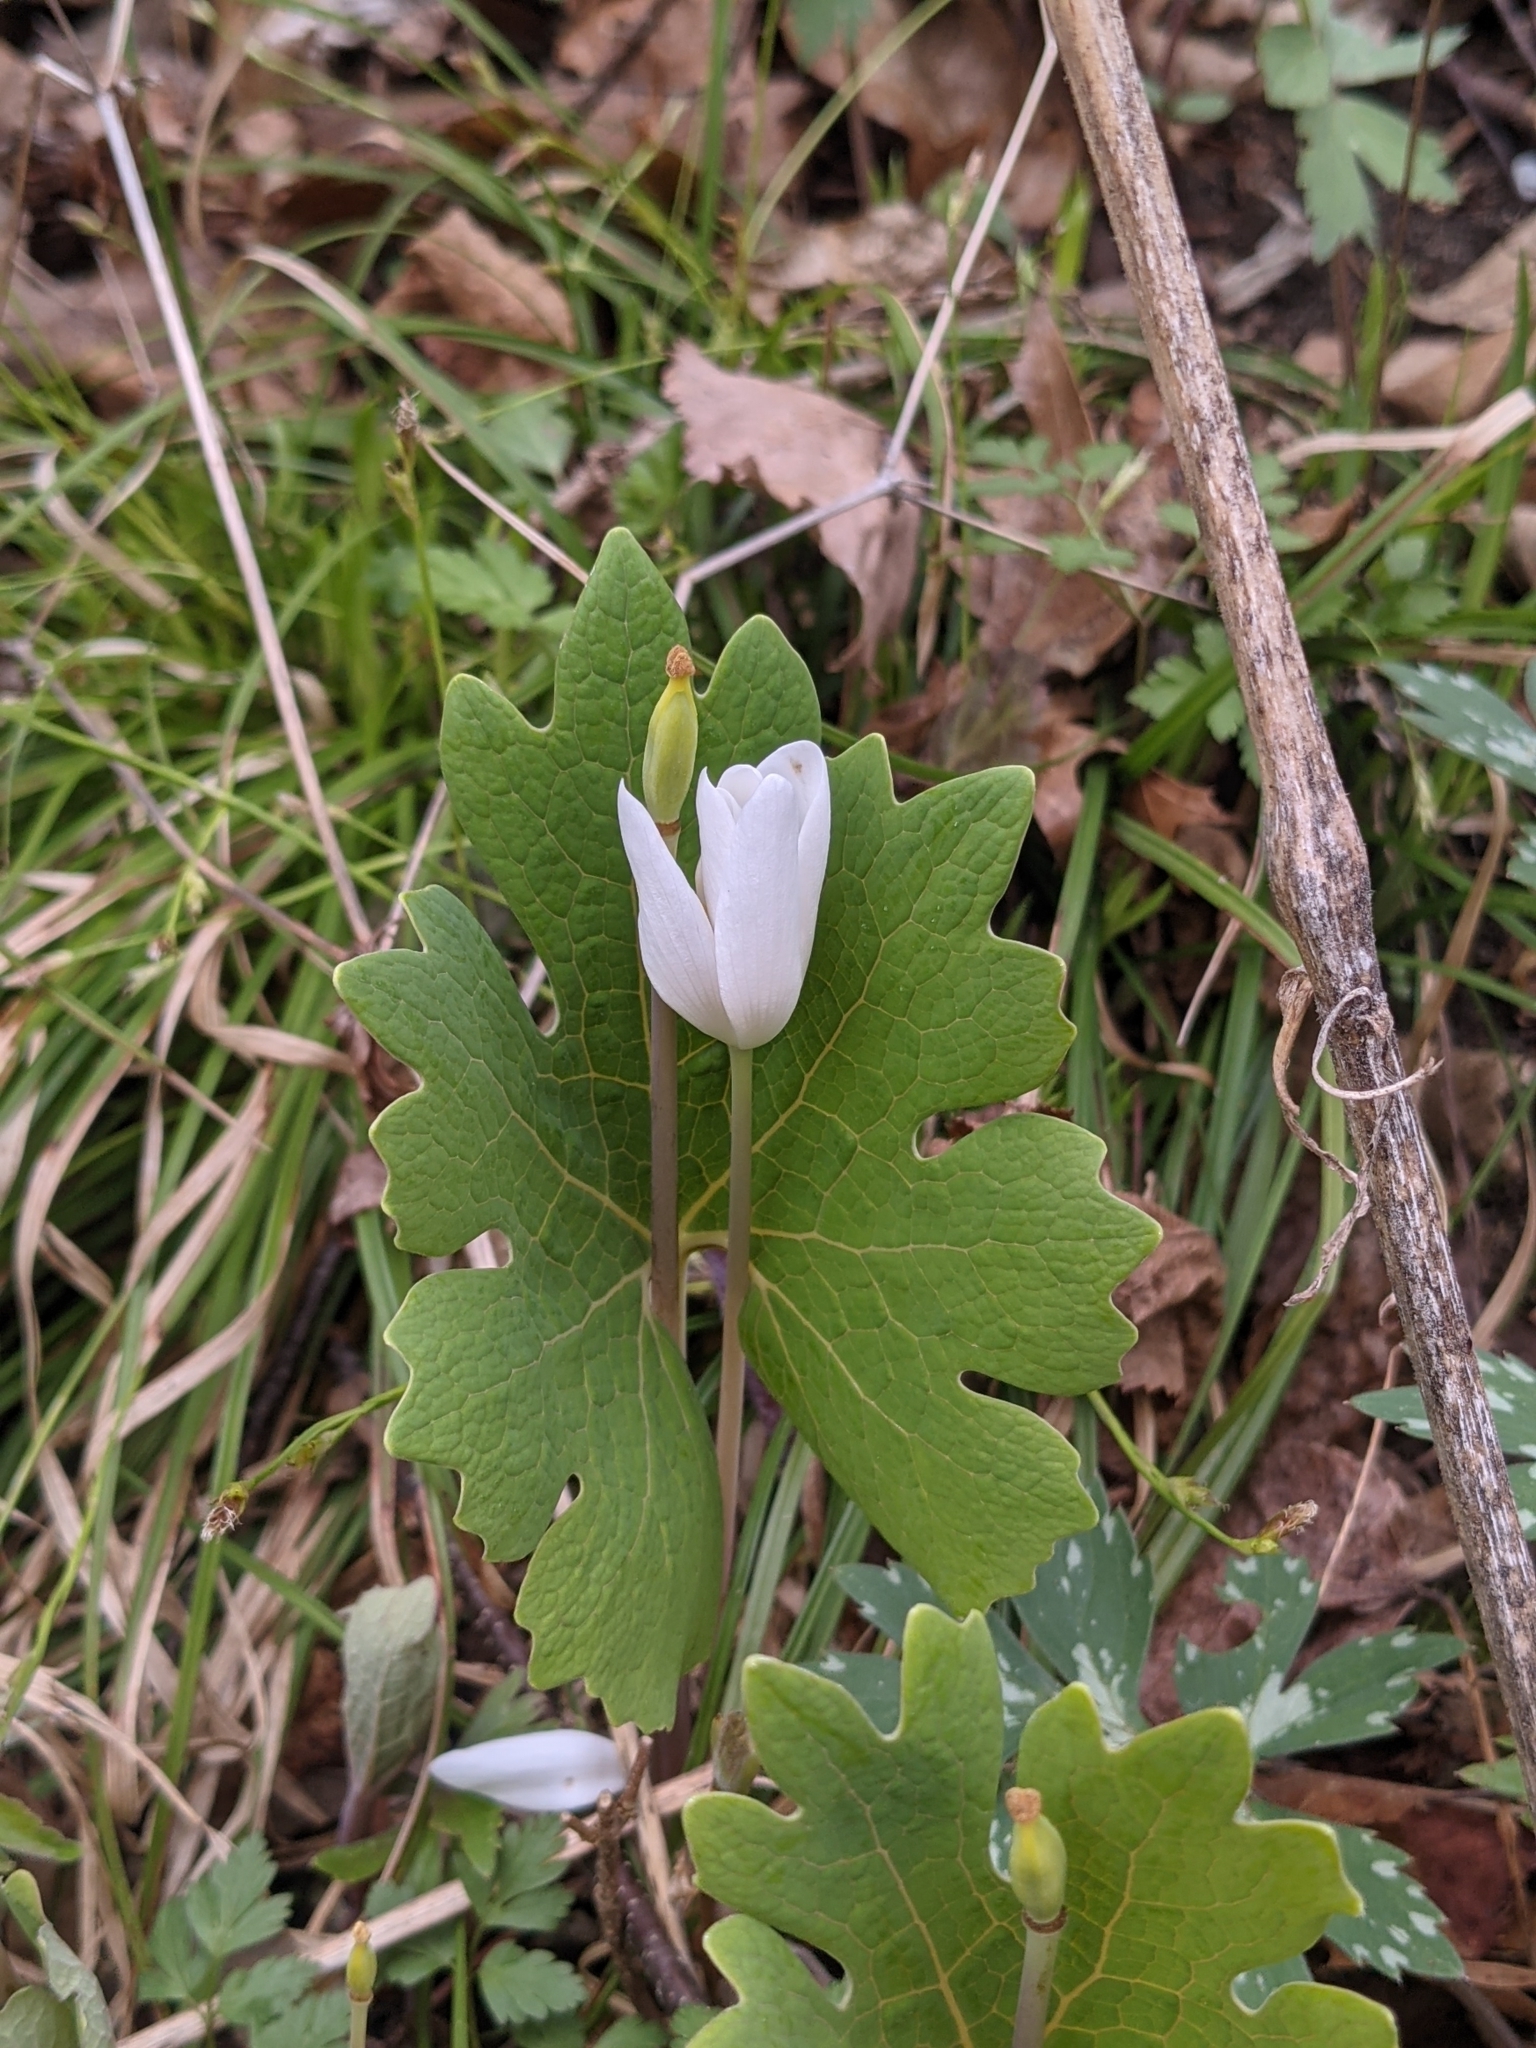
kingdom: Plantae
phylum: Tracheophyta
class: Magnoliopsida
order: Ranunculales
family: Papaveraceae
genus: Sanguinaria
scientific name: Sanguinaria canadensis
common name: Bloodroot
